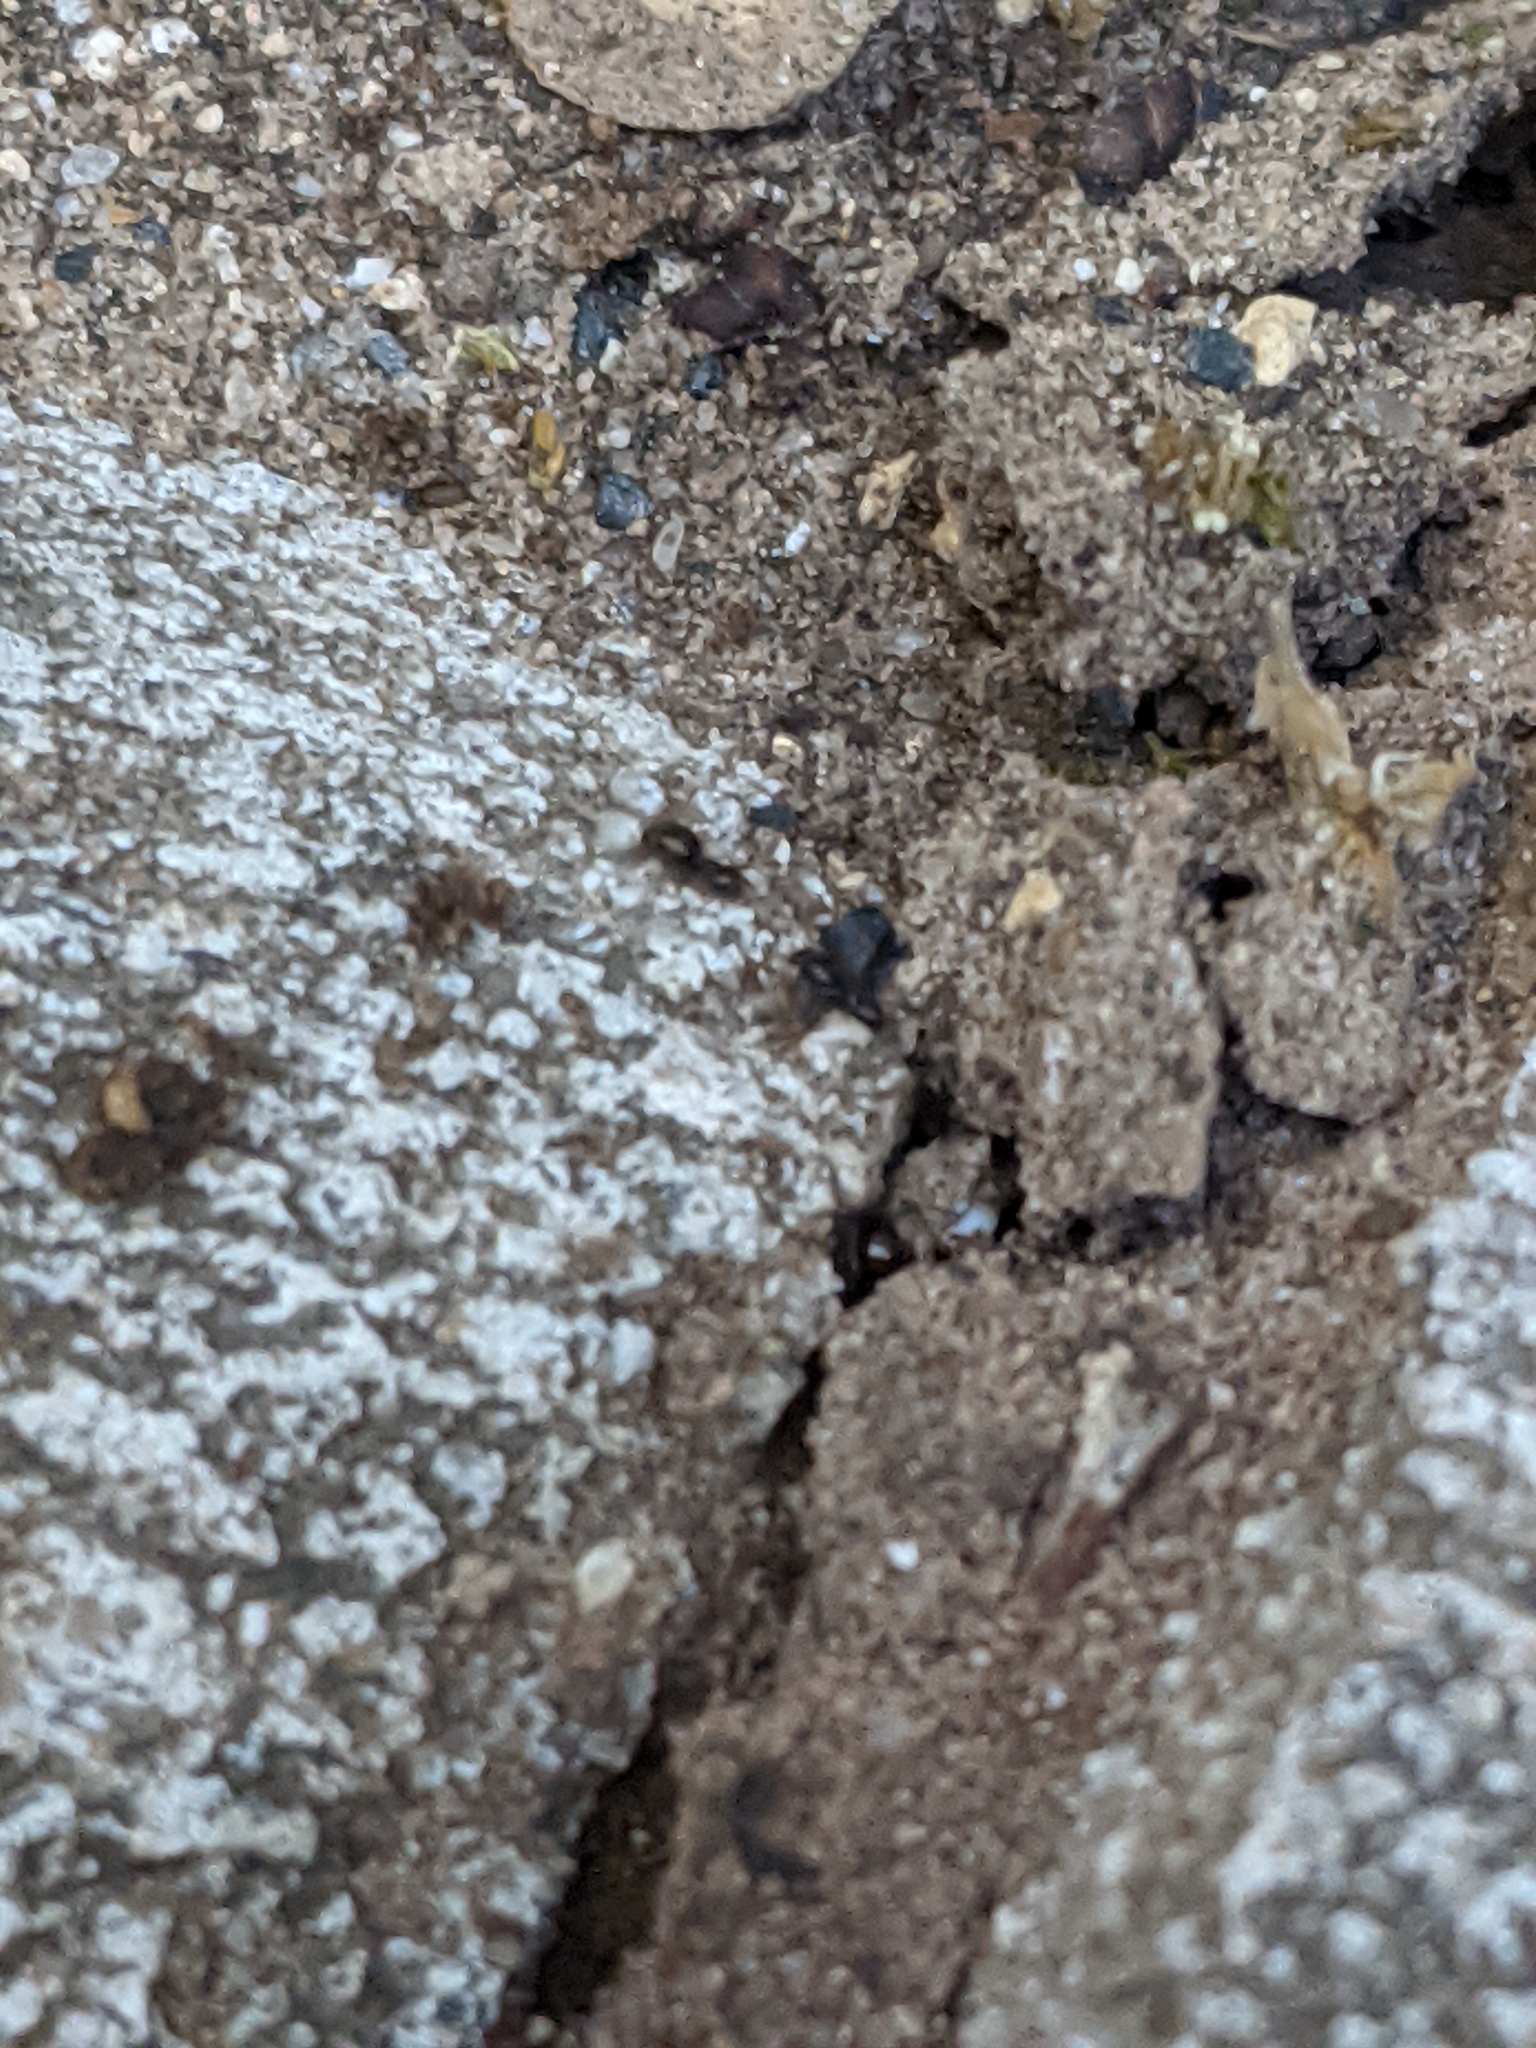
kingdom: Animalia
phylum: Arthropoda
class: Insecta
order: Hymenoptera
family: Formicidae
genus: Brachymyrmex
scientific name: Brachymyrmex patagonicus
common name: Dark rover ant
